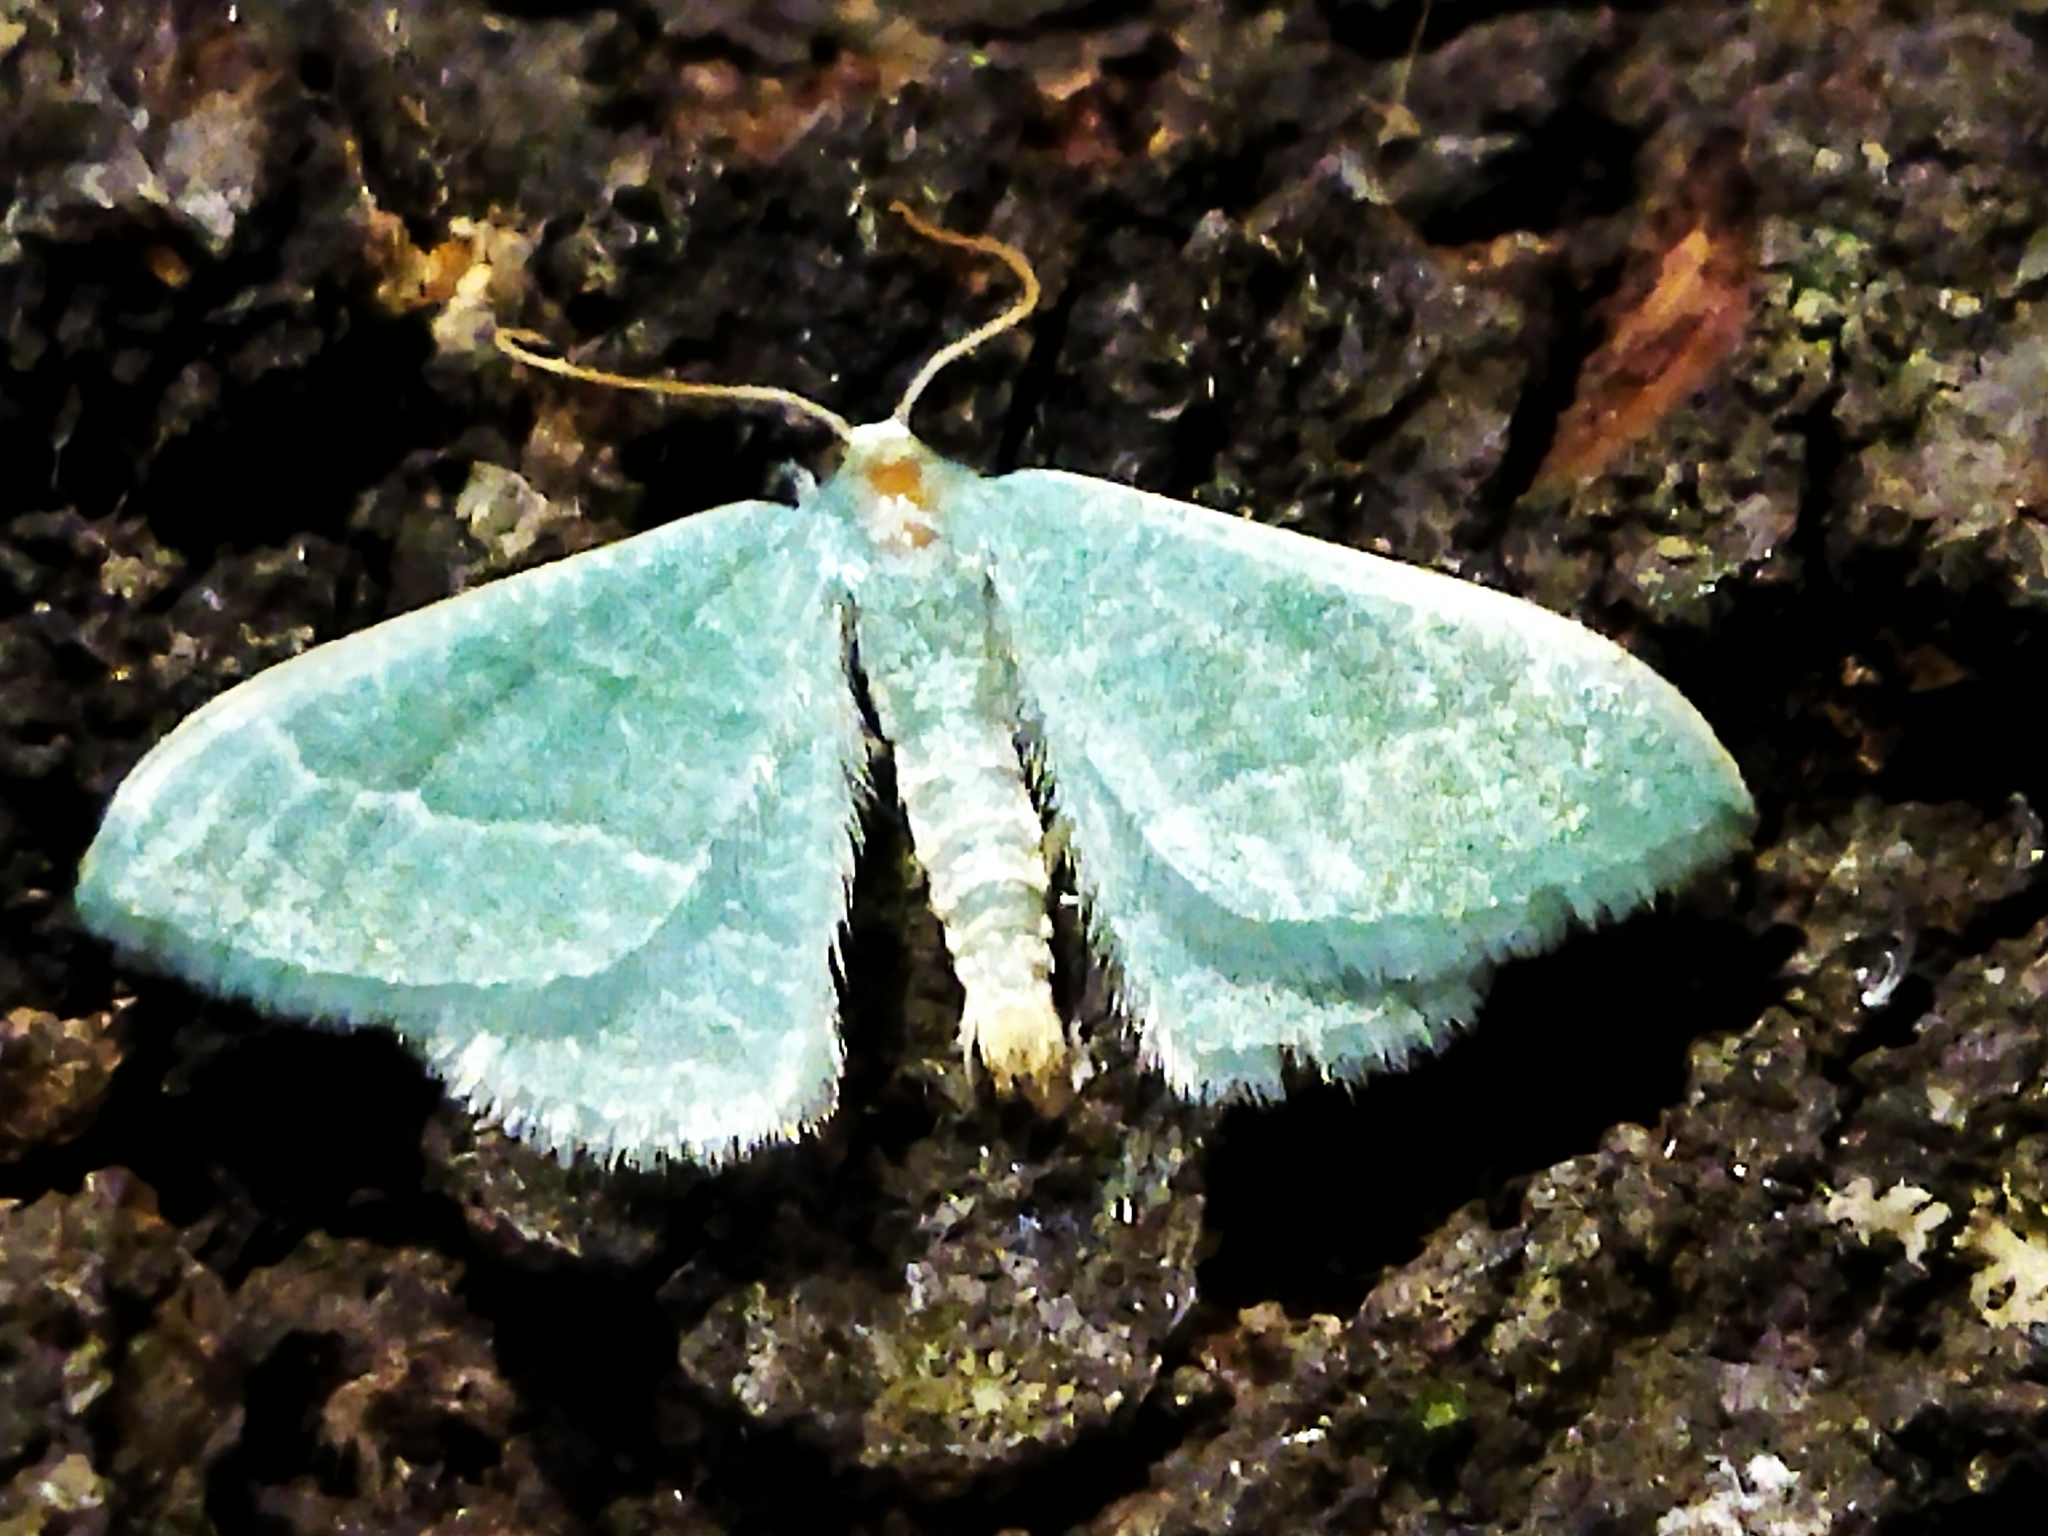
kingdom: Animalia
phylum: Arthropoda
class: Insecta
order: Lepidoptera
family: Geometridae
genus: Chlorissa
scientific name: Chlorissa etruscaria
